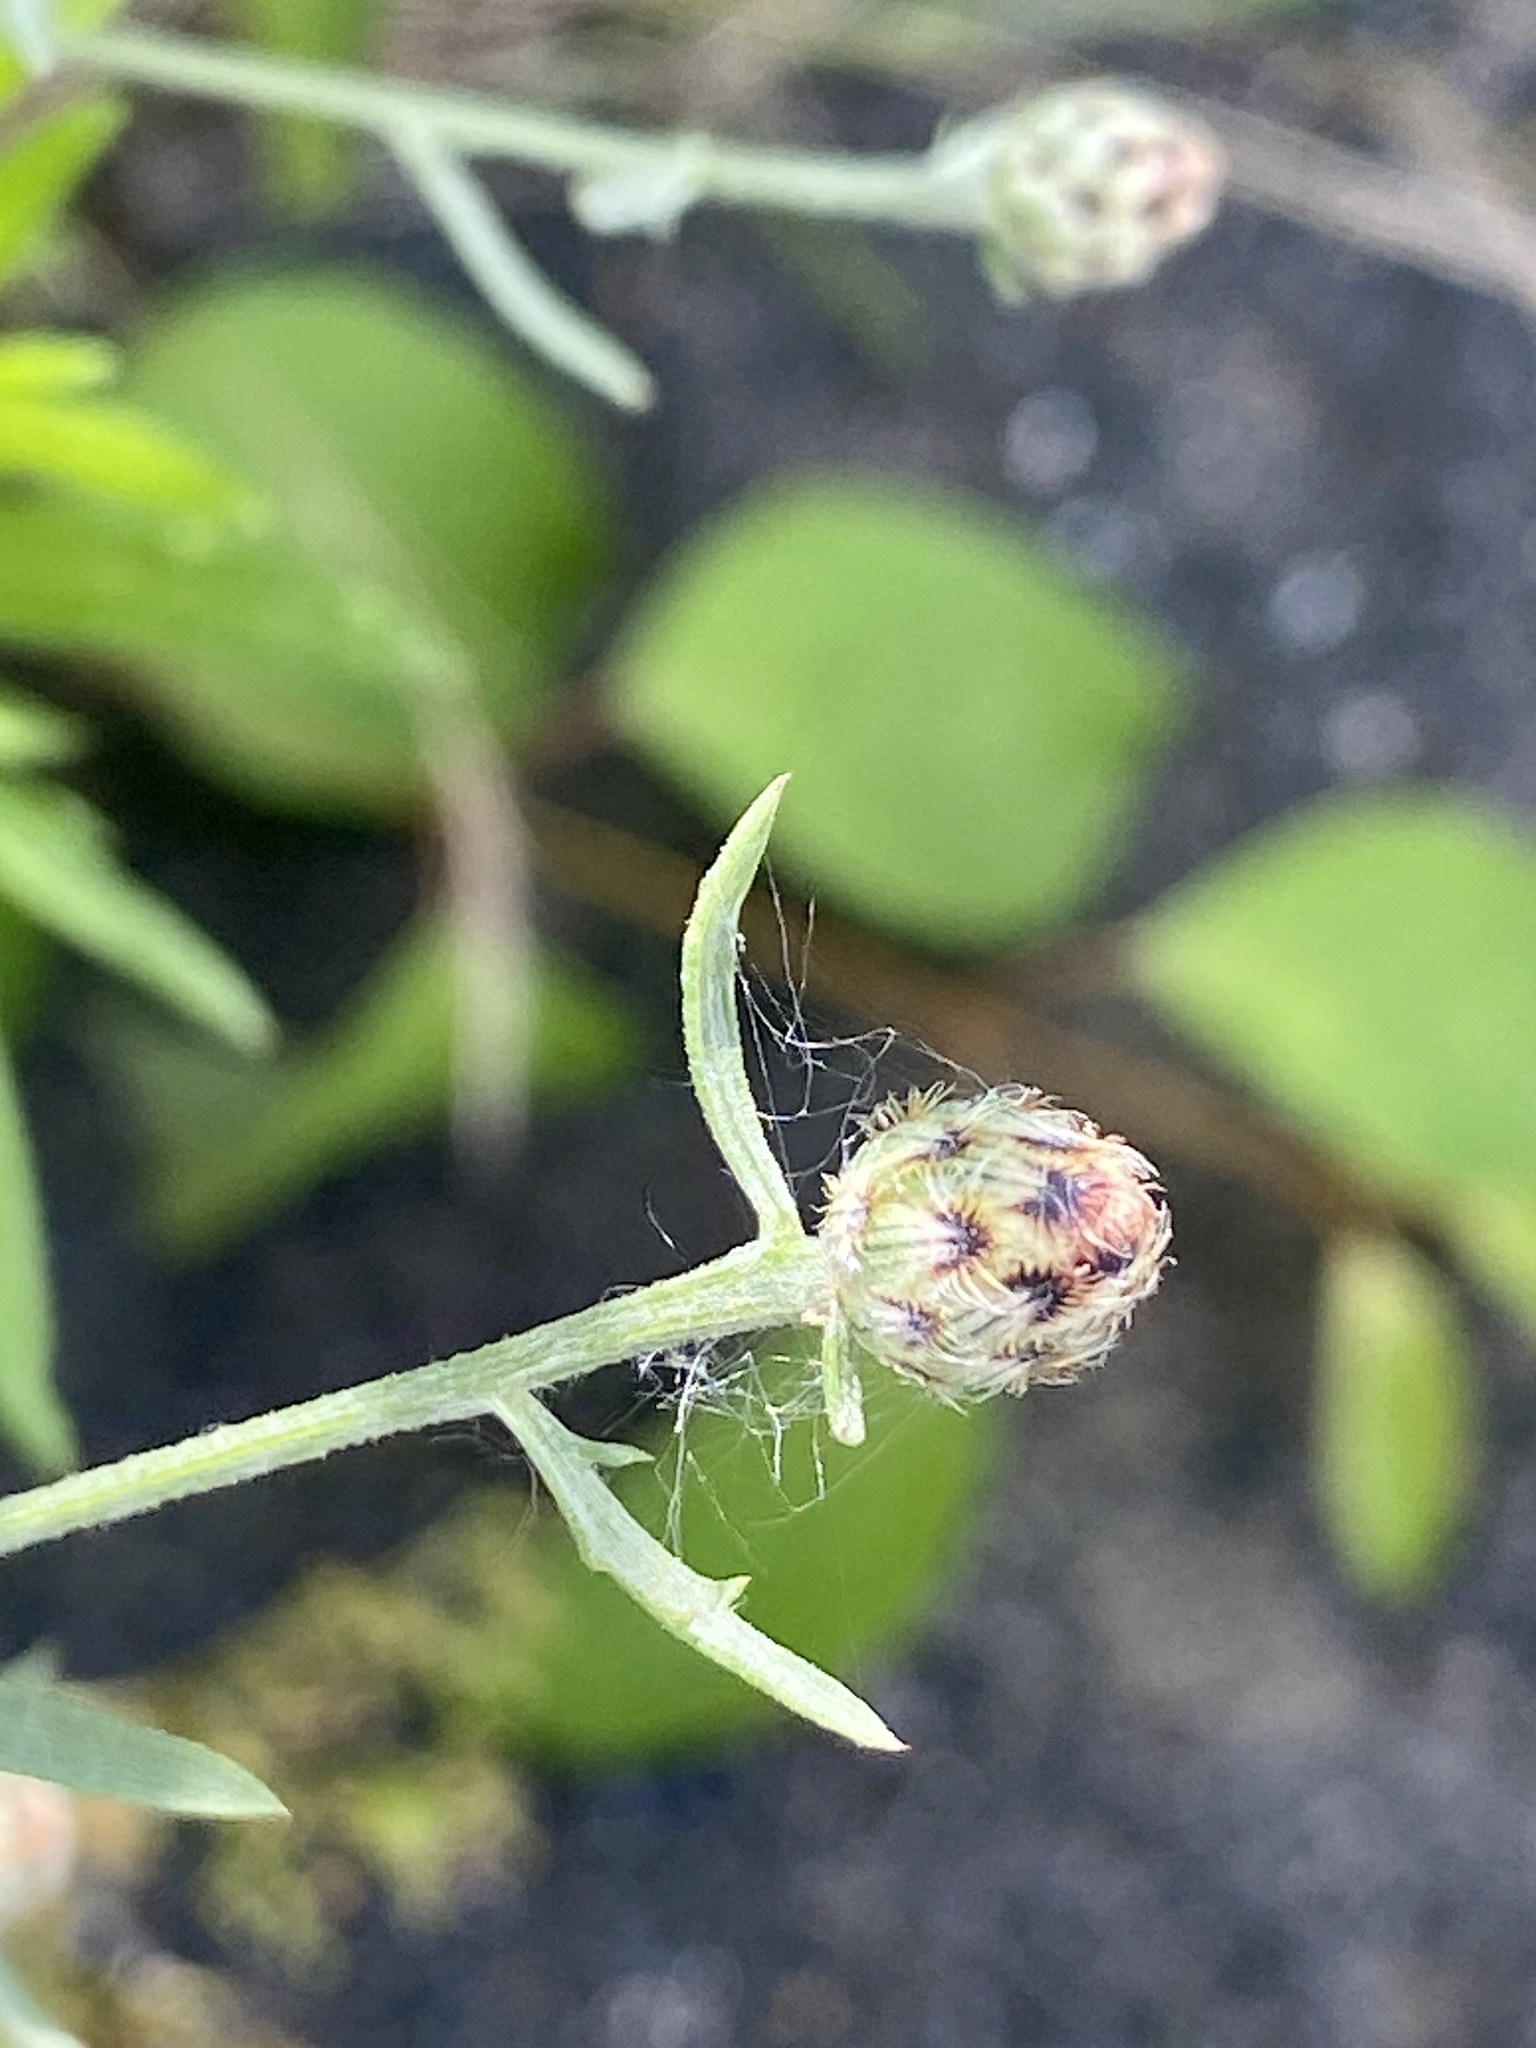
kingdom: Plantae
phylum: Tracheophyta
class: Magnoliopsida
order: Asterales
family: Asteraceae
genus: Centaurea
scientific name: Centaurea stoebe
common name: Spotted knapweed
